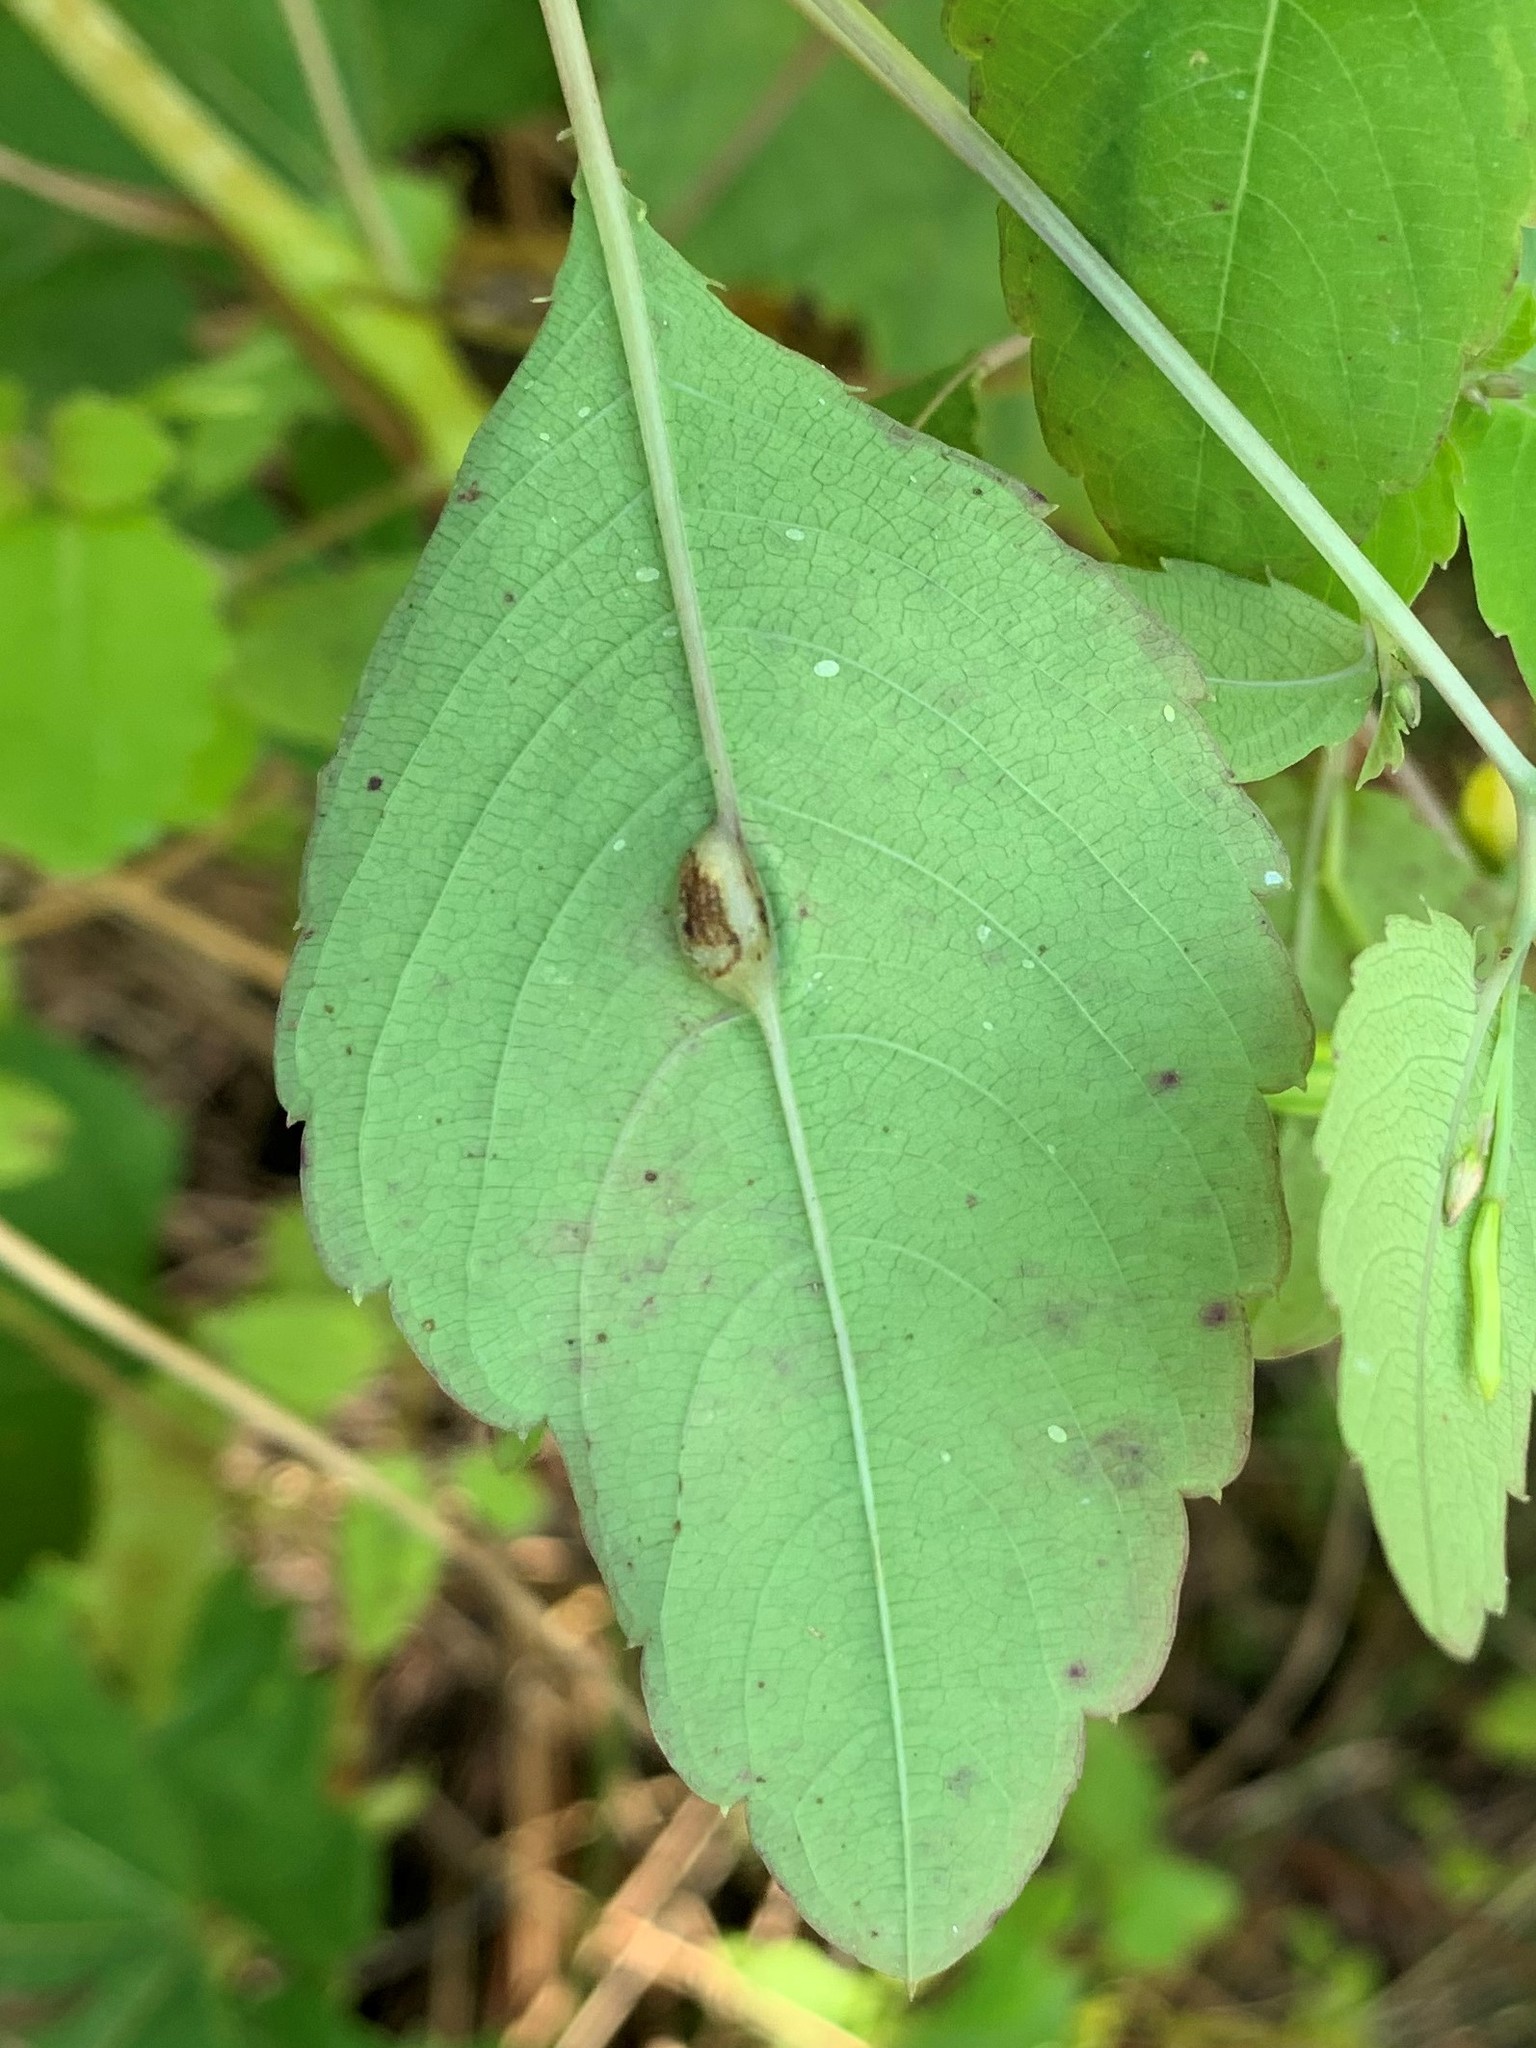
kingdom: Animalia
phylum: Arthropoda
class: Insecta
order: Diptera
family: Cecidomyiidae
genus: Neolasioptera
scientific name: Neolasioptera impatientifolia
